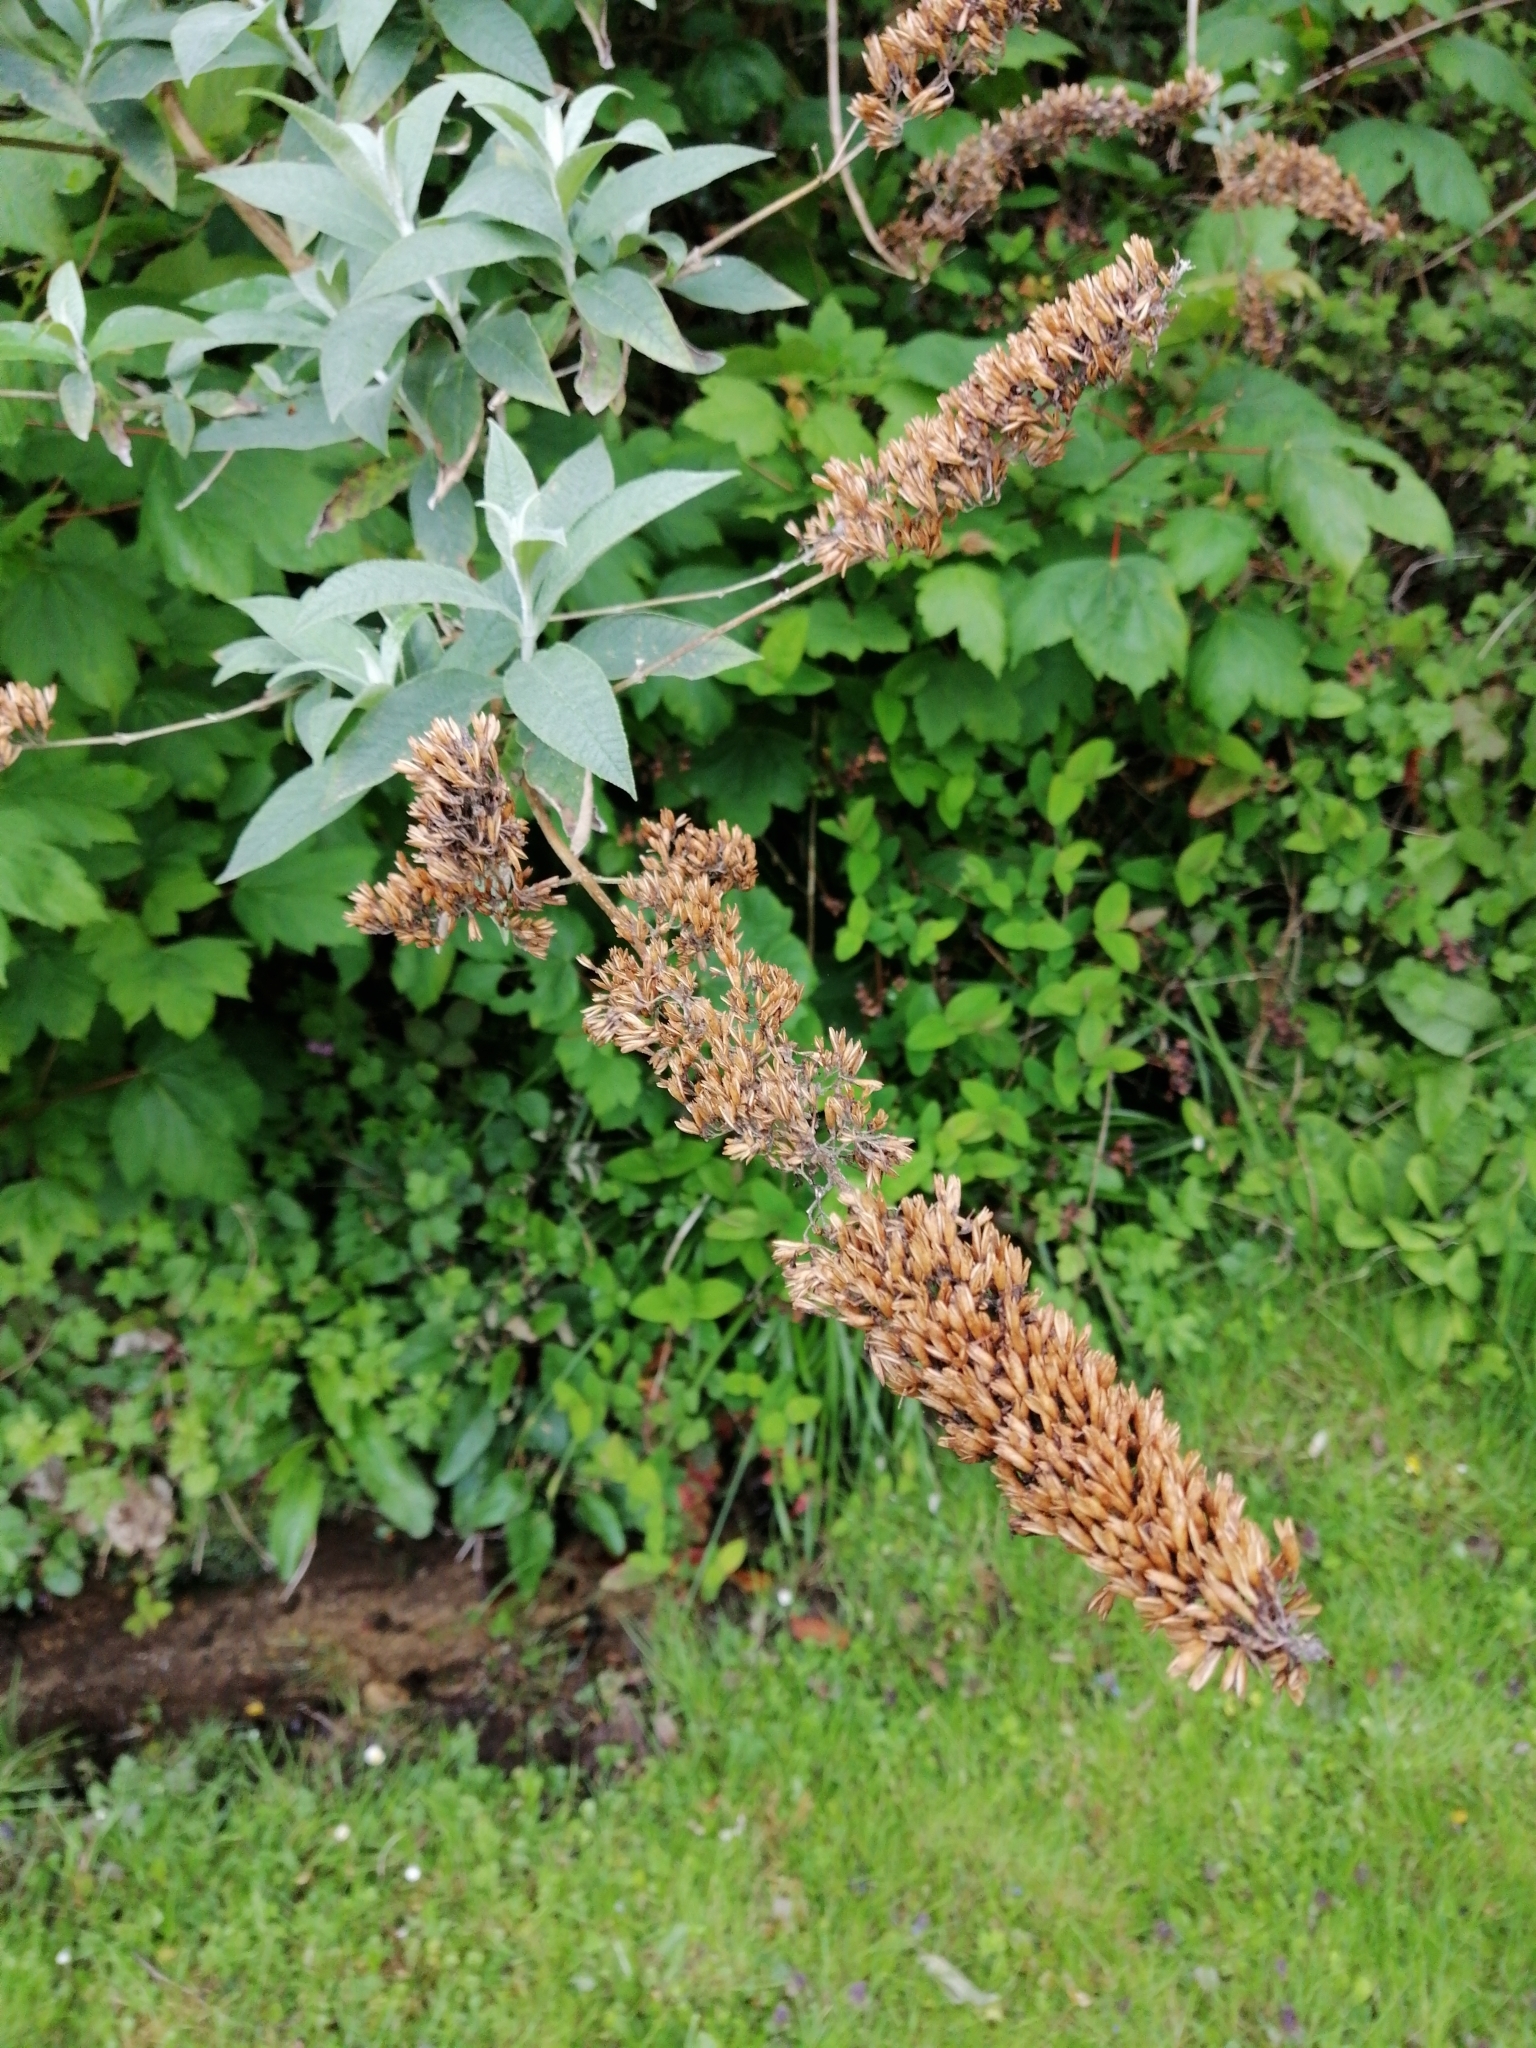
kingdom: Plantae
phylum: Tracheophyta
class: Magnoliopsida
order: Lamiales
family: Scrophulariaceae
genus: Buddleja
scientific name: Buddleja davidii
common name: Butterfly-bush
